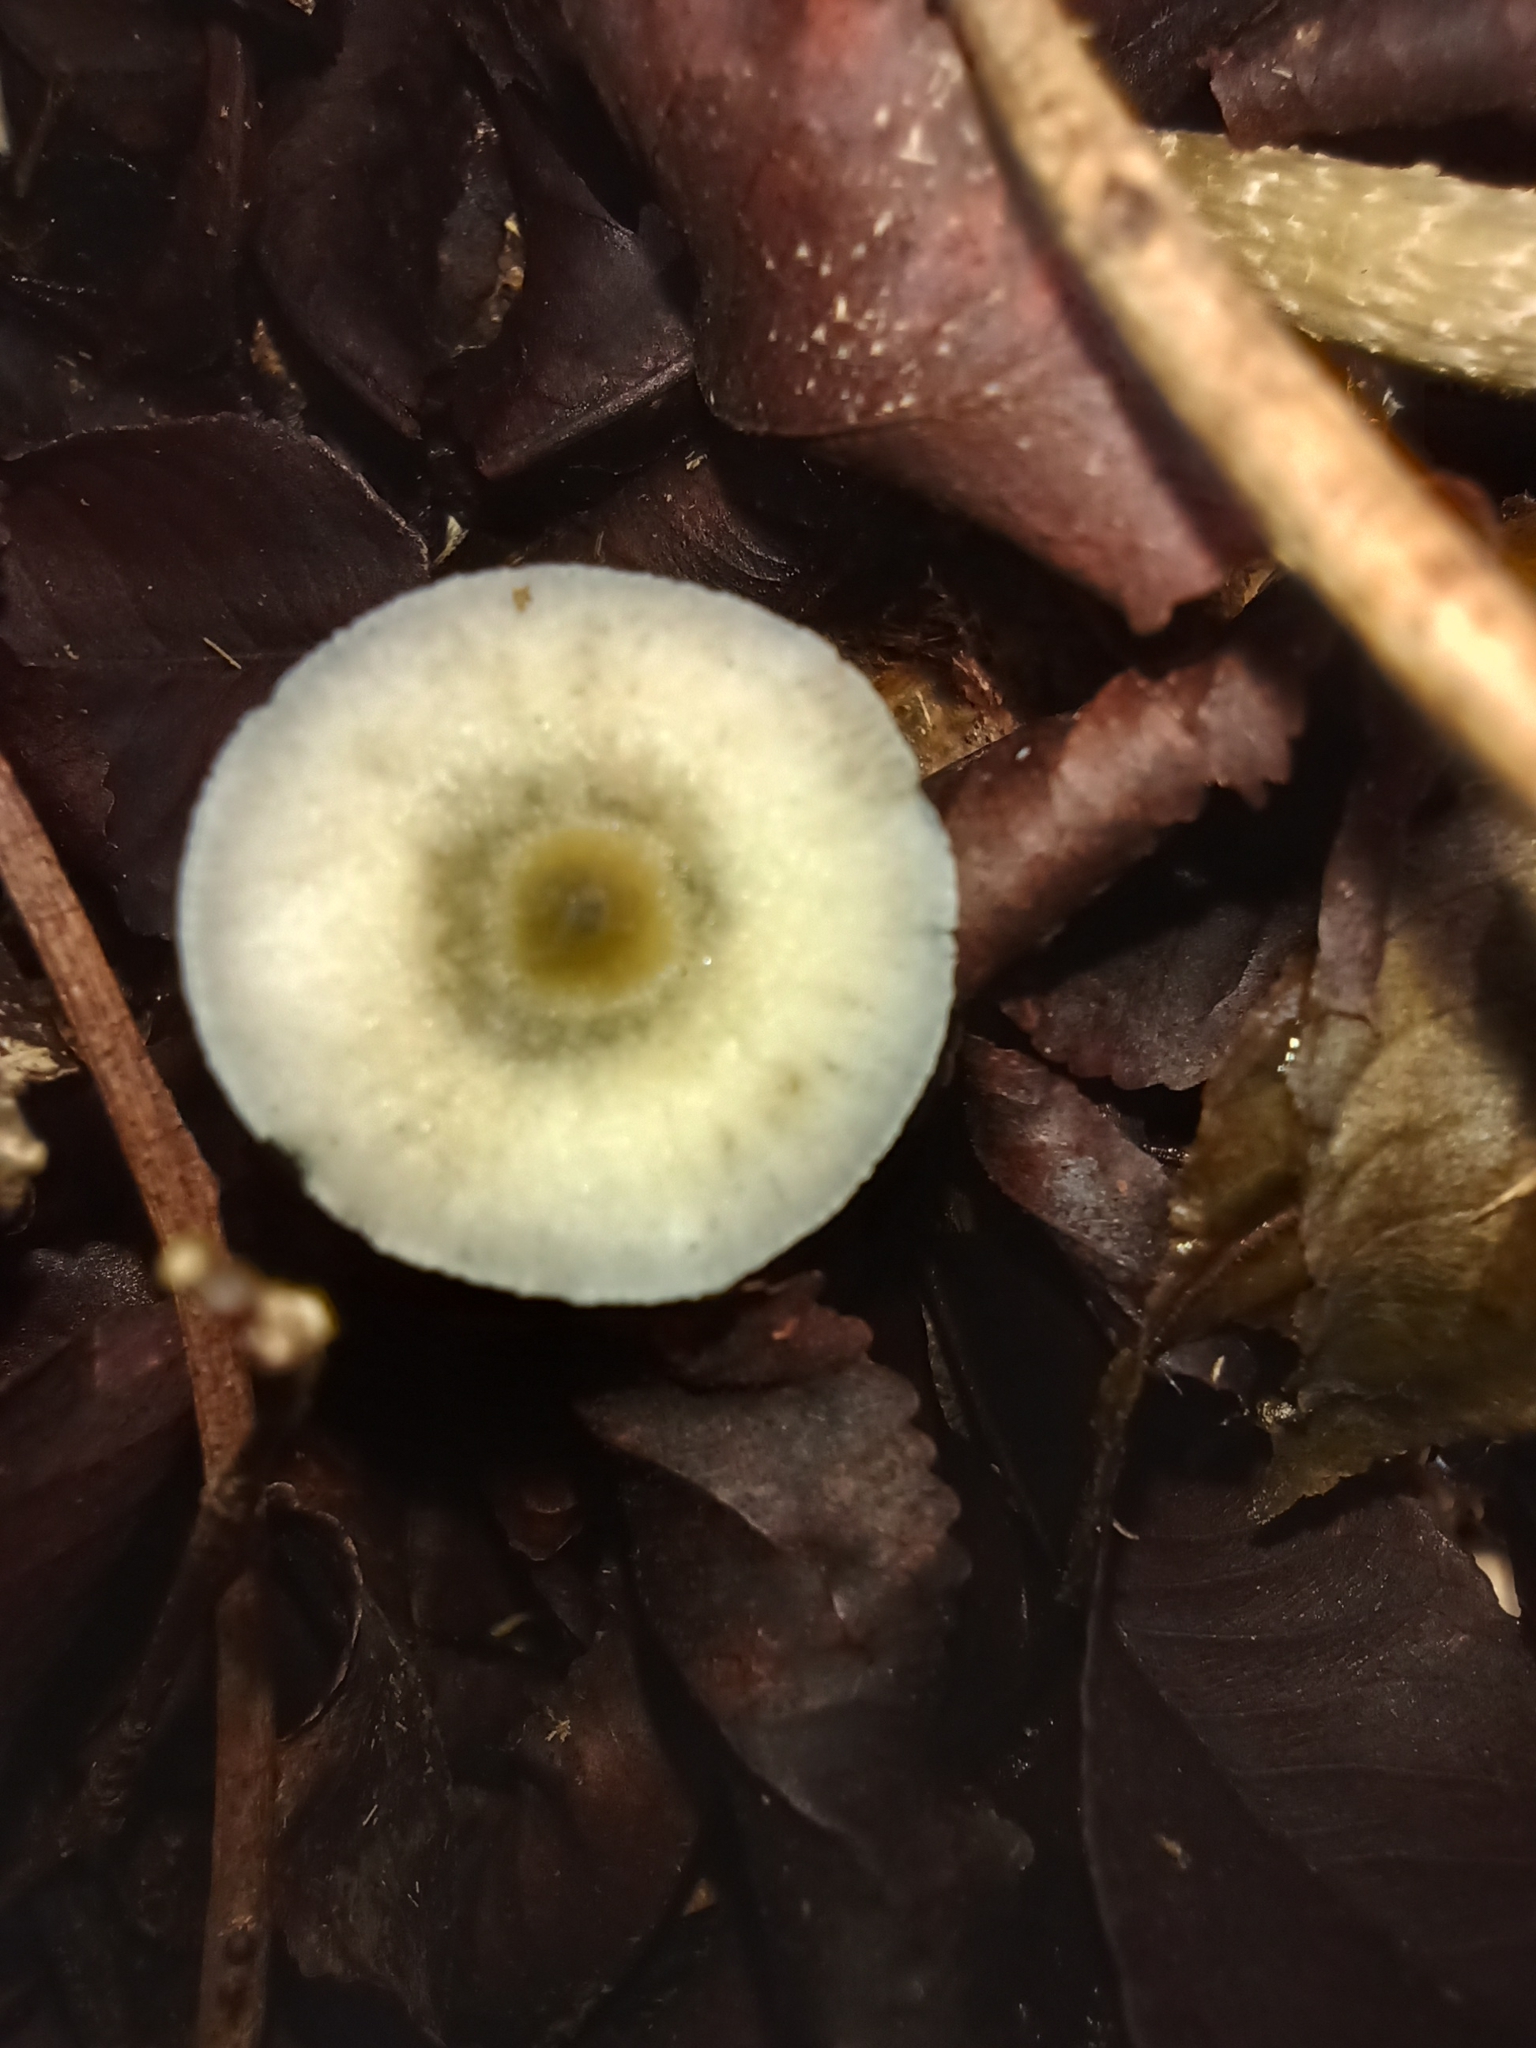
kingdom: Fungi
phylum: Basidiomycota
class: Agaricomycetes
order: Agaricales
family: Hymenogastraceae
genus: Psilocybe
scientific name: Psilocybe cubensis
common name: Golden brownie
